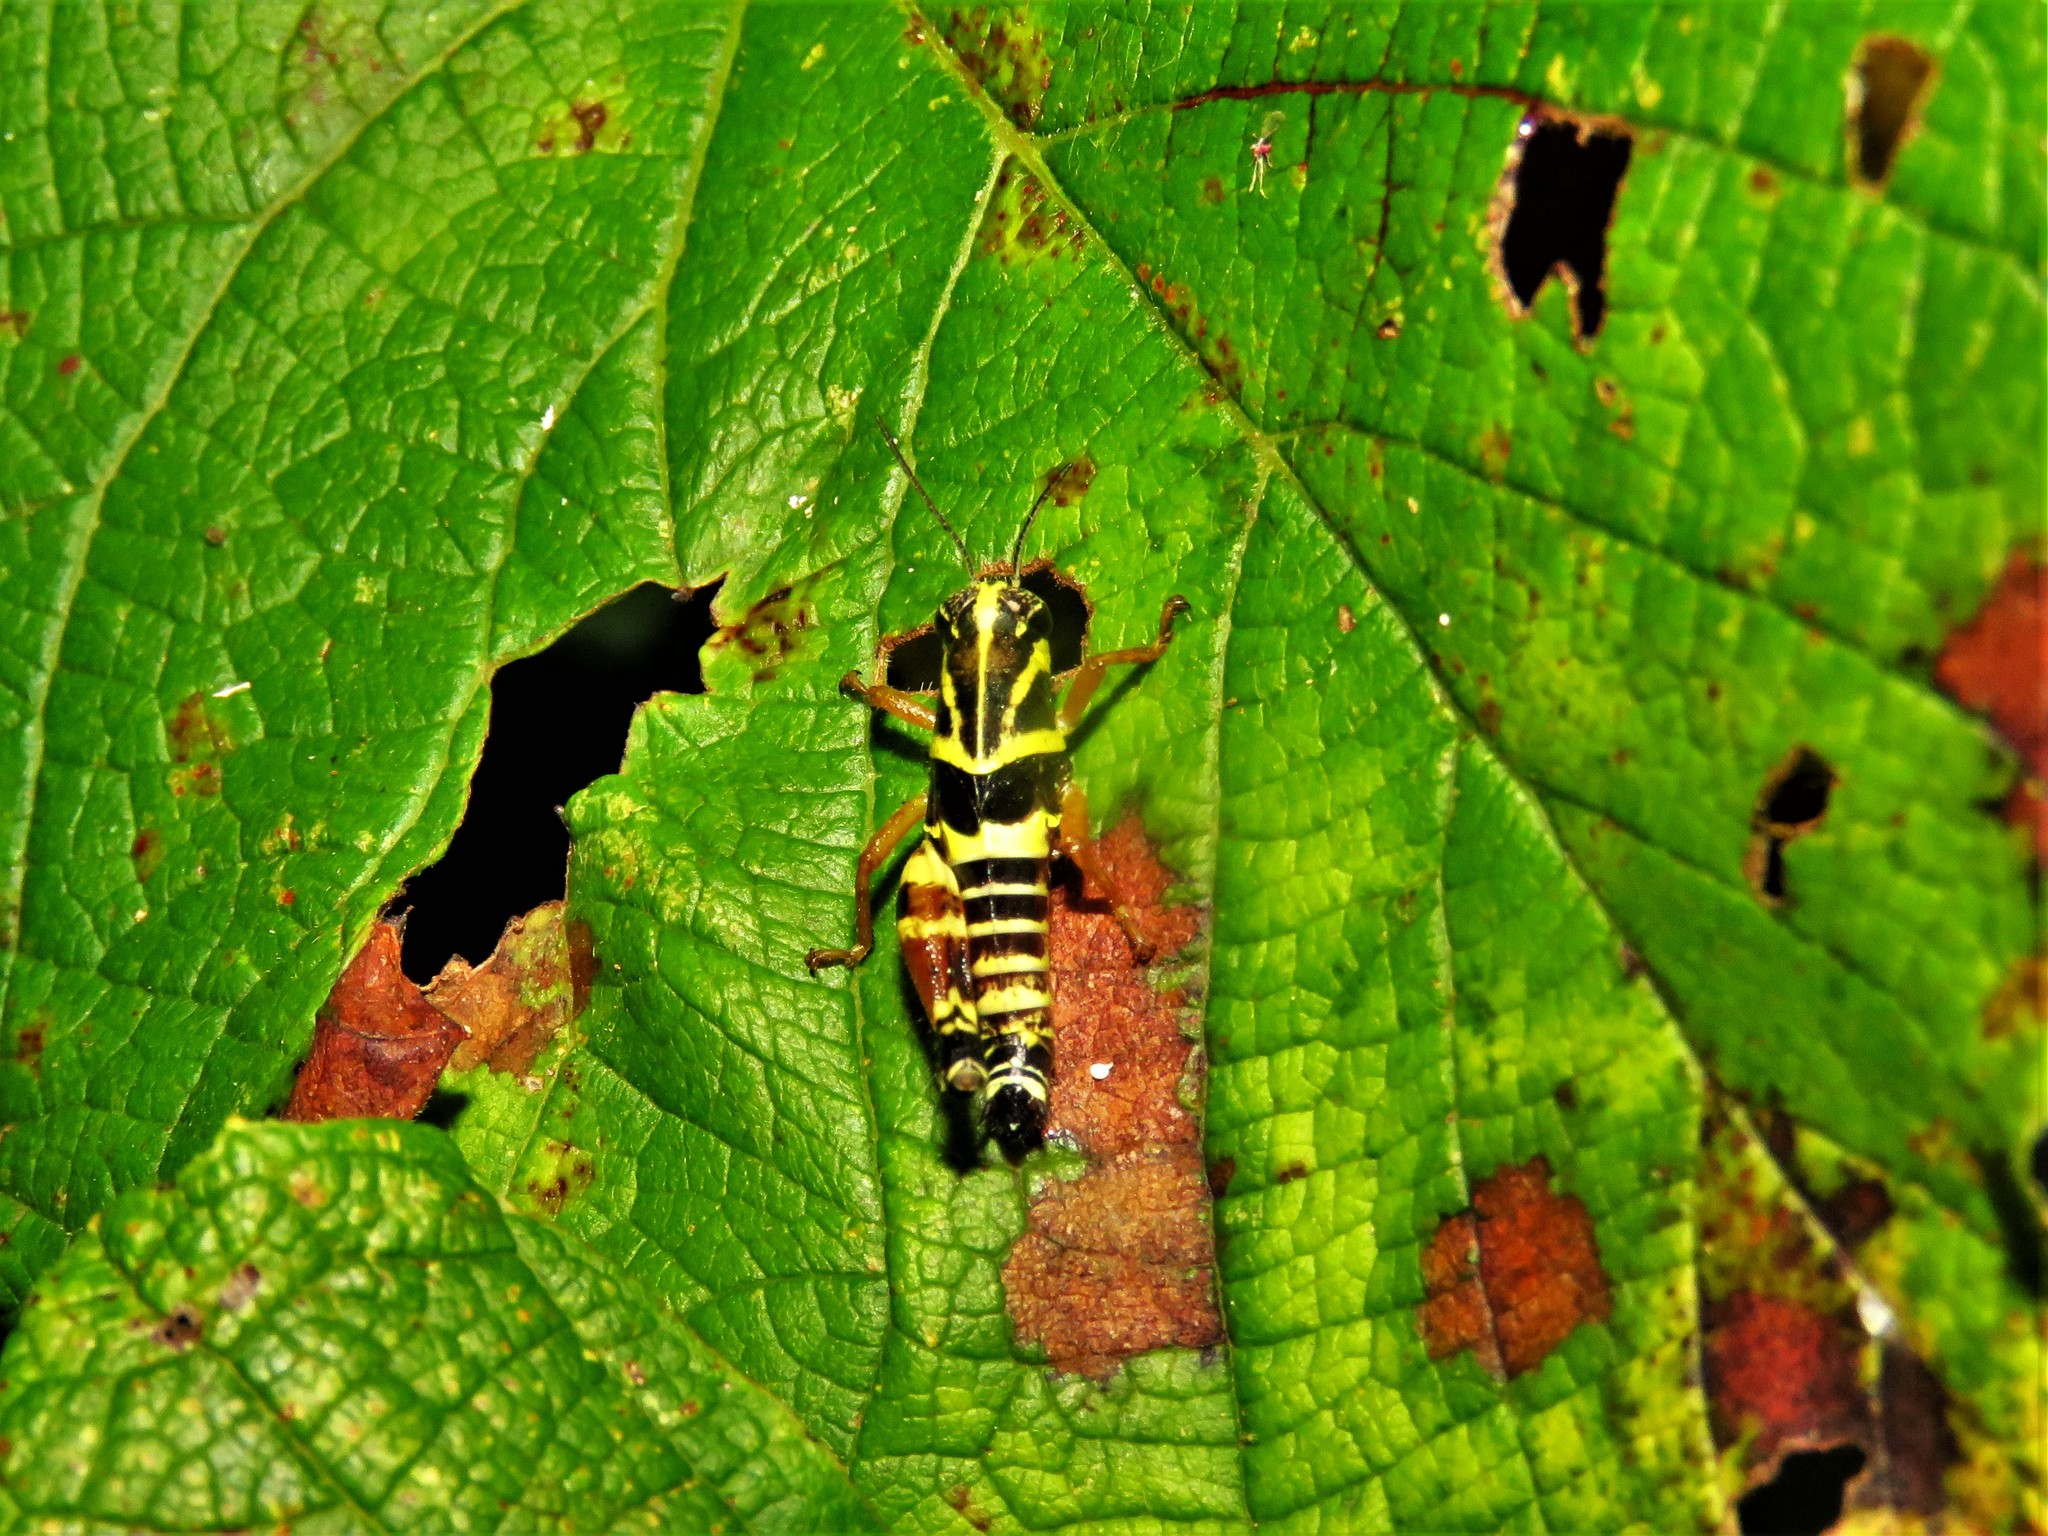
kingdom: Animalia
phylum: Arthropoda
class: Insecta
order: Orthoptera
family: Acrididae
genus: Aidemona
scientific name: Aidemona azteca
